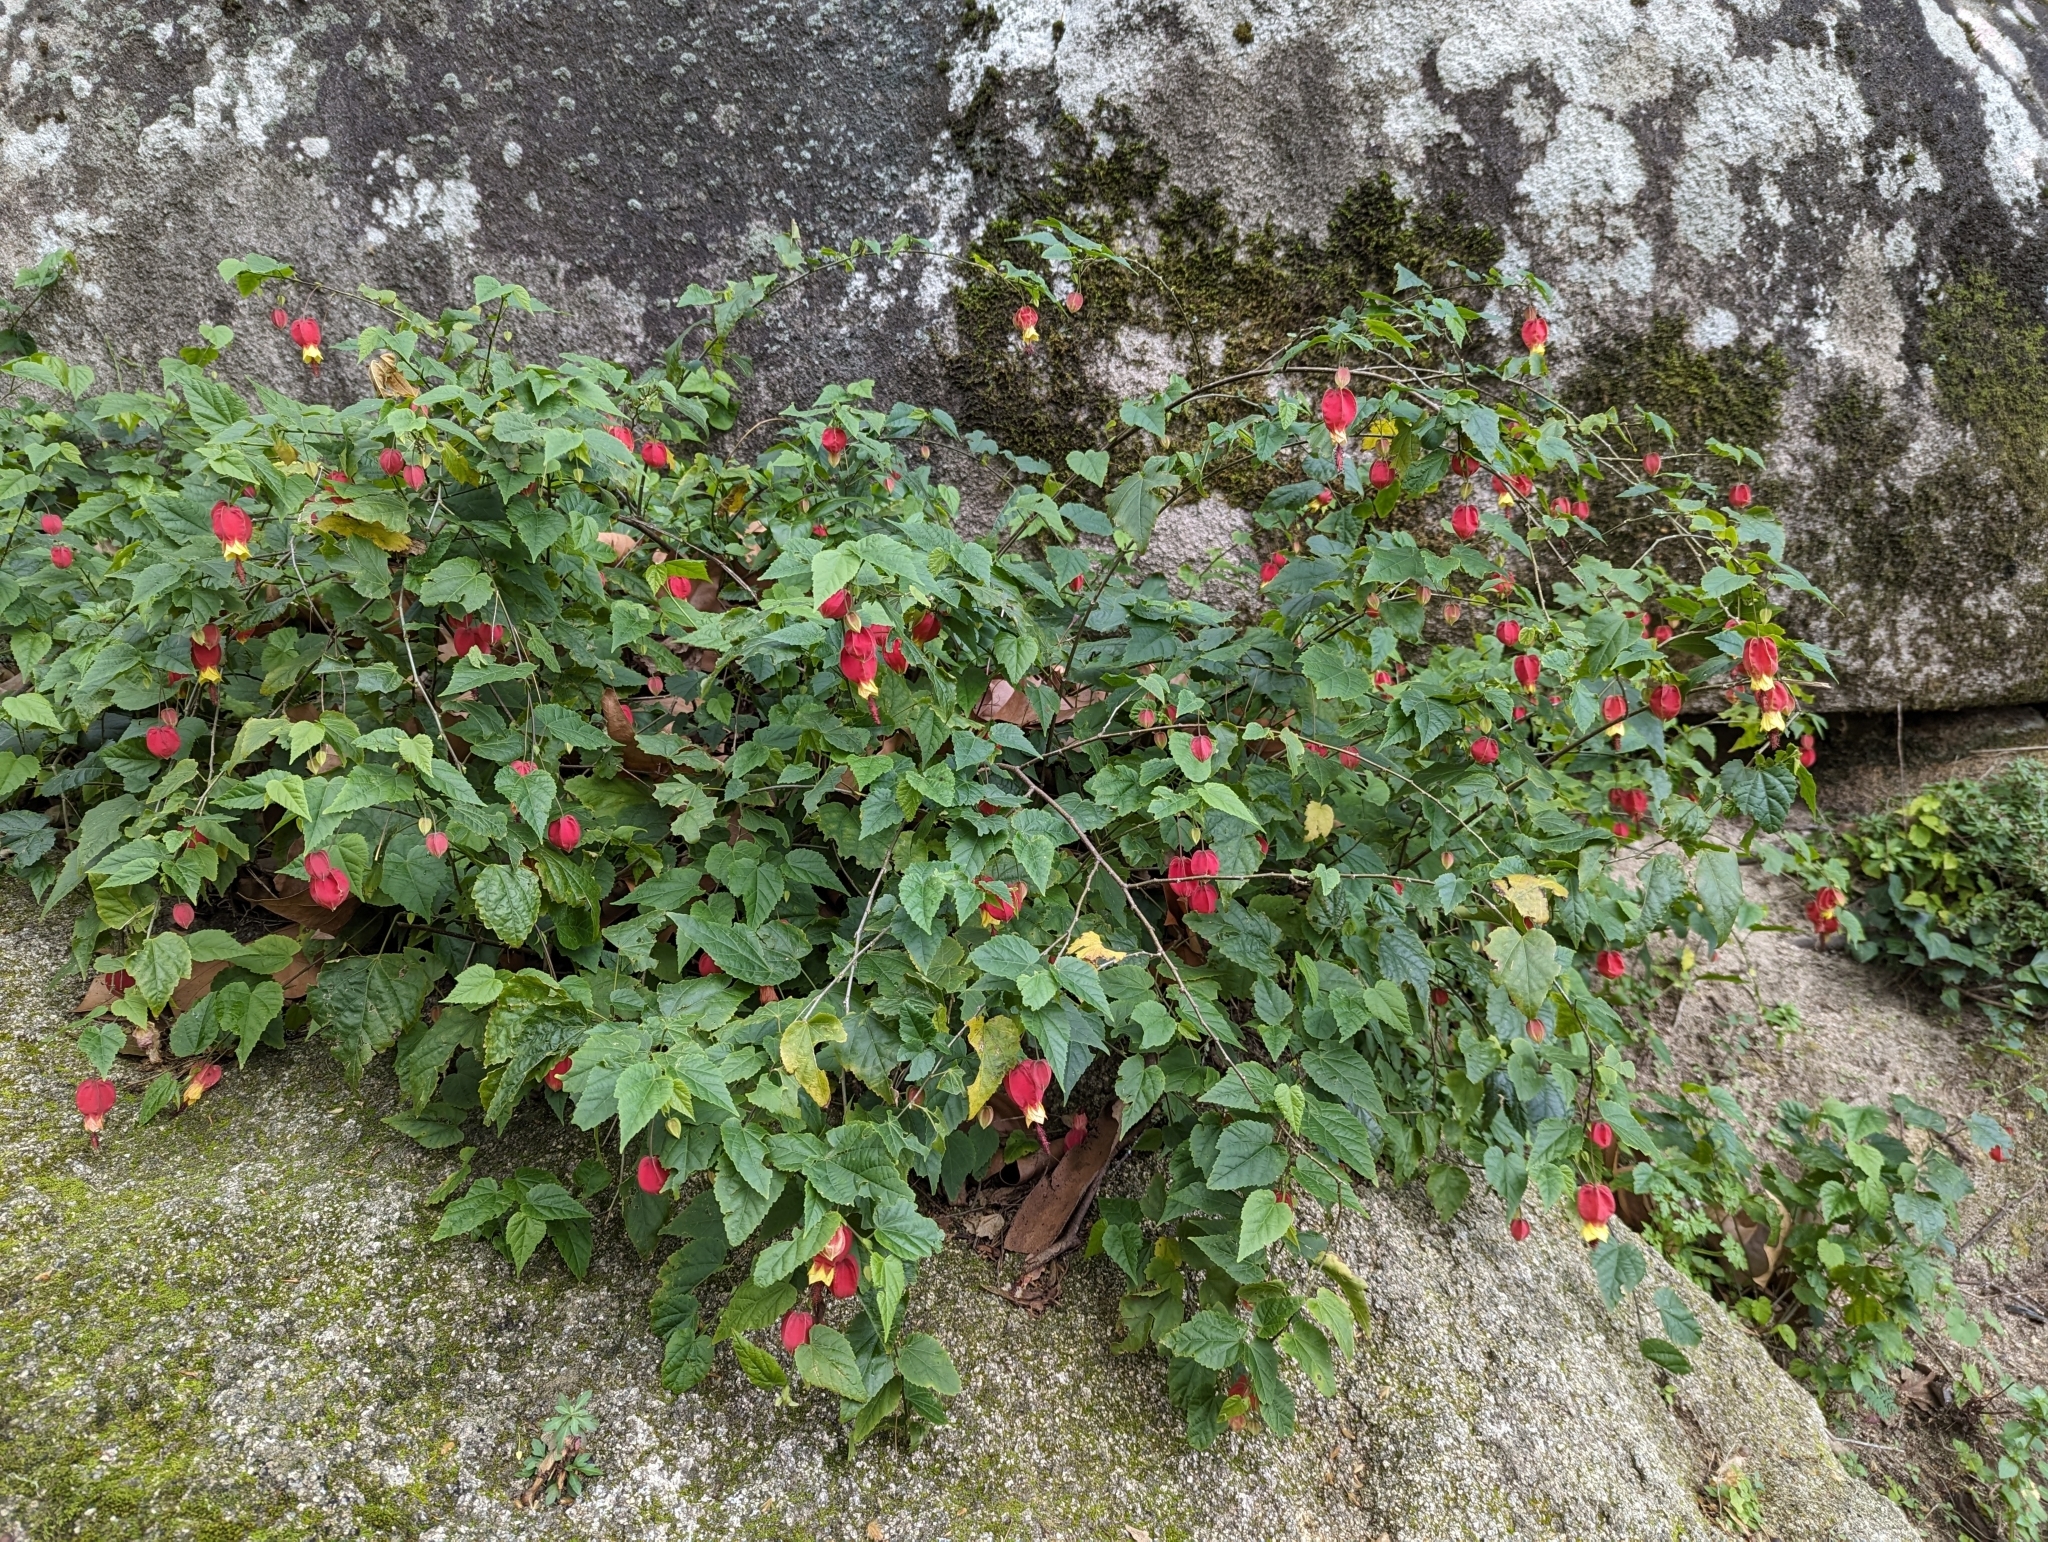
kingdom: Plantae
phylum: Tracheophyta
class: Magnoliopsida
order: Malvales
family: Malvaceae
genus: Callianthe
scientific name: Callianthe megapotamica
